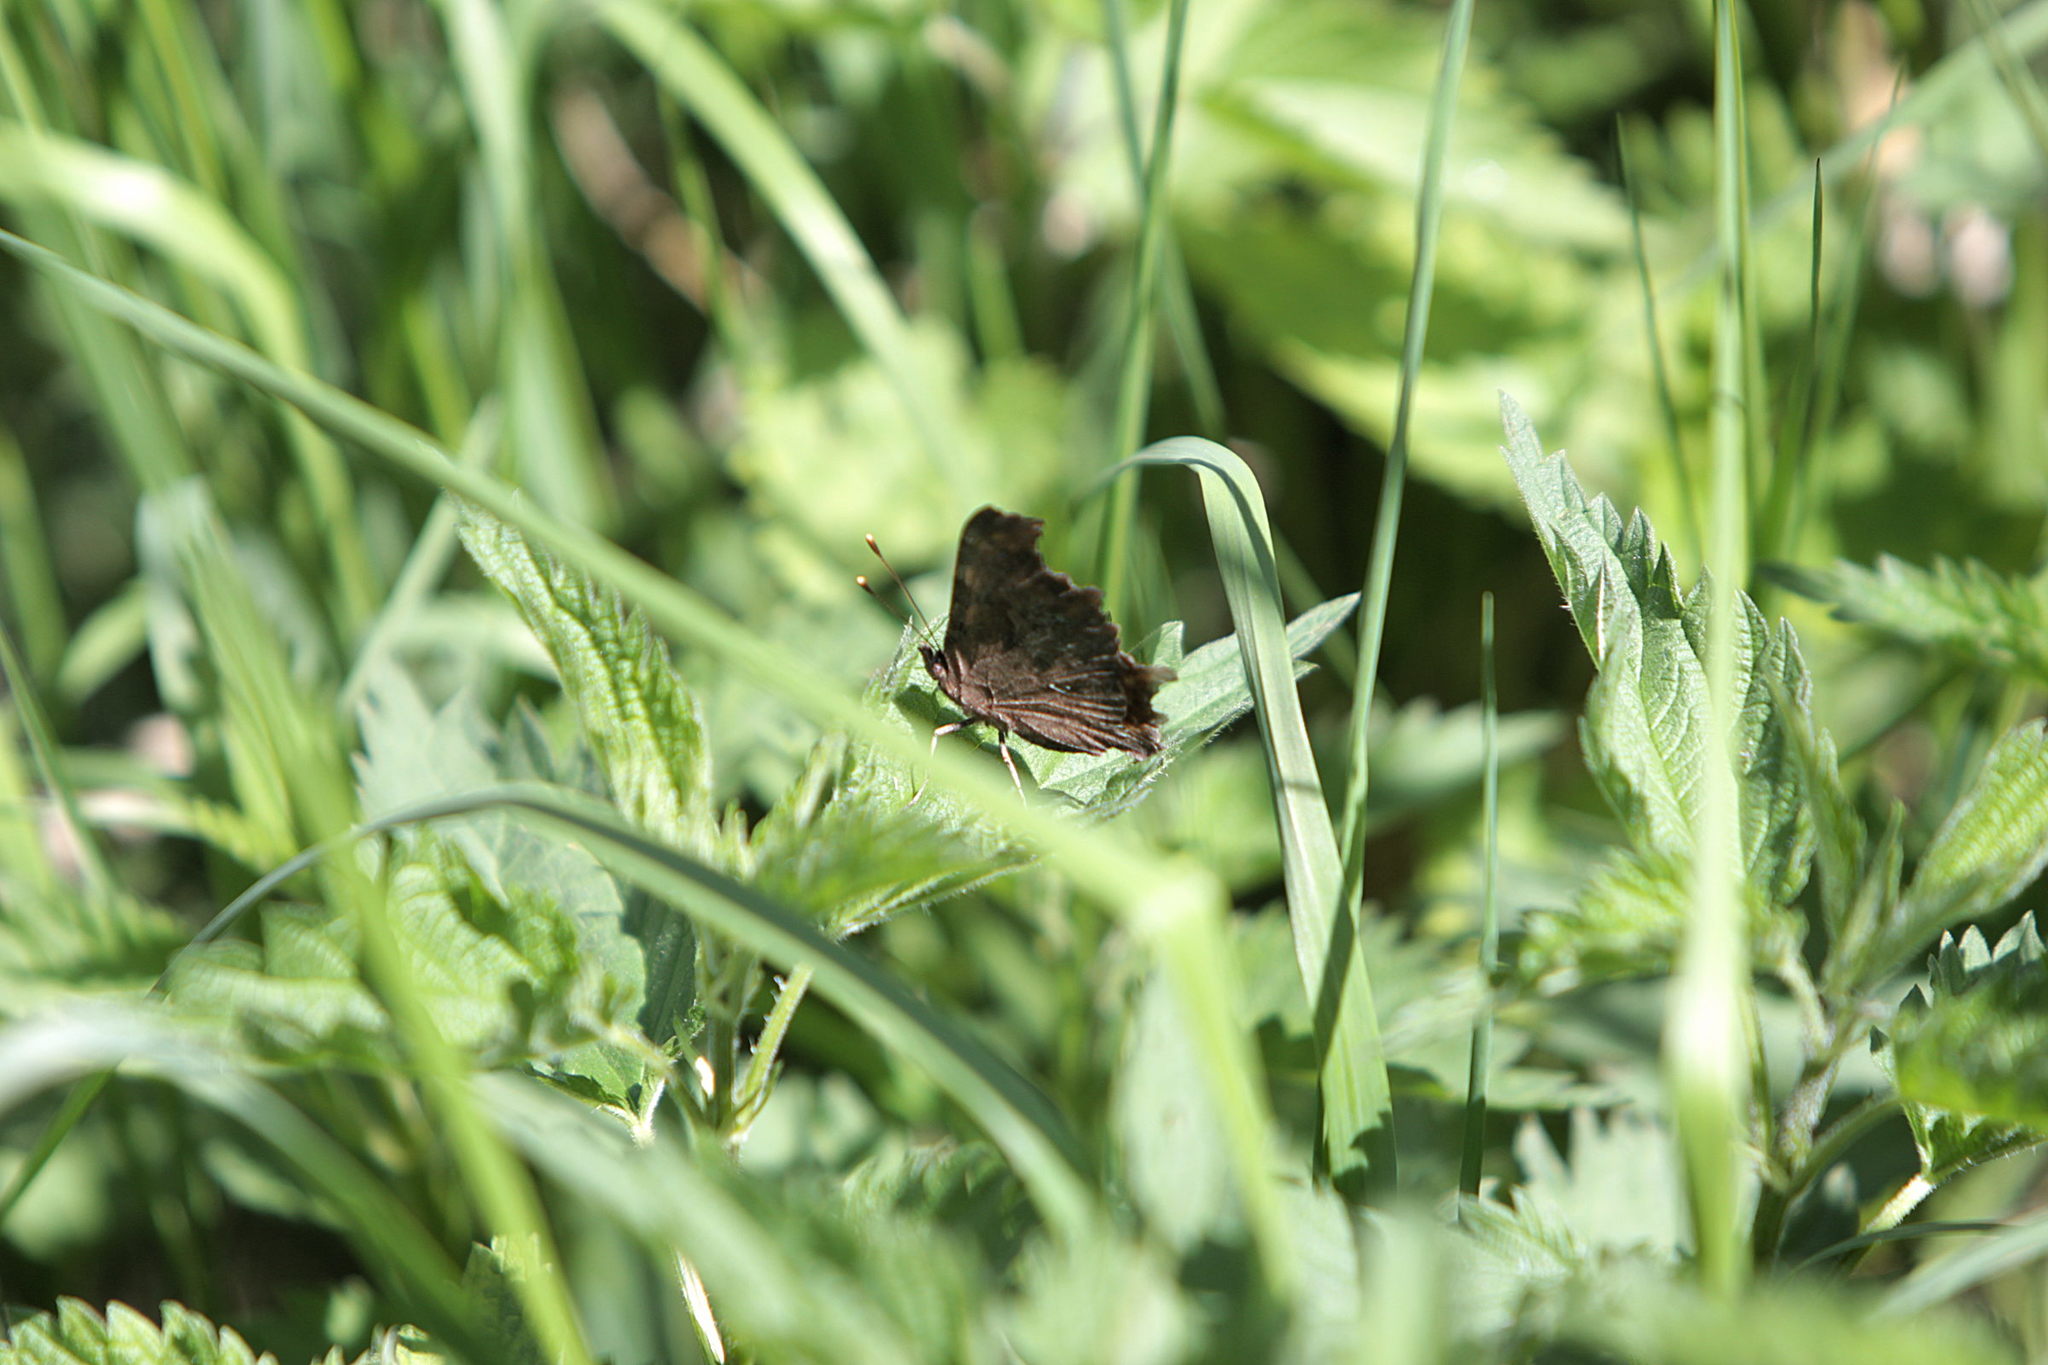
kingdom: Animalia
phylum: Arthropoda
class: Insecta
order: Lepidoptera
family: Nymphalidae
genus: Polygonia
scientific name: Polygonia c-album
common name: Comma
